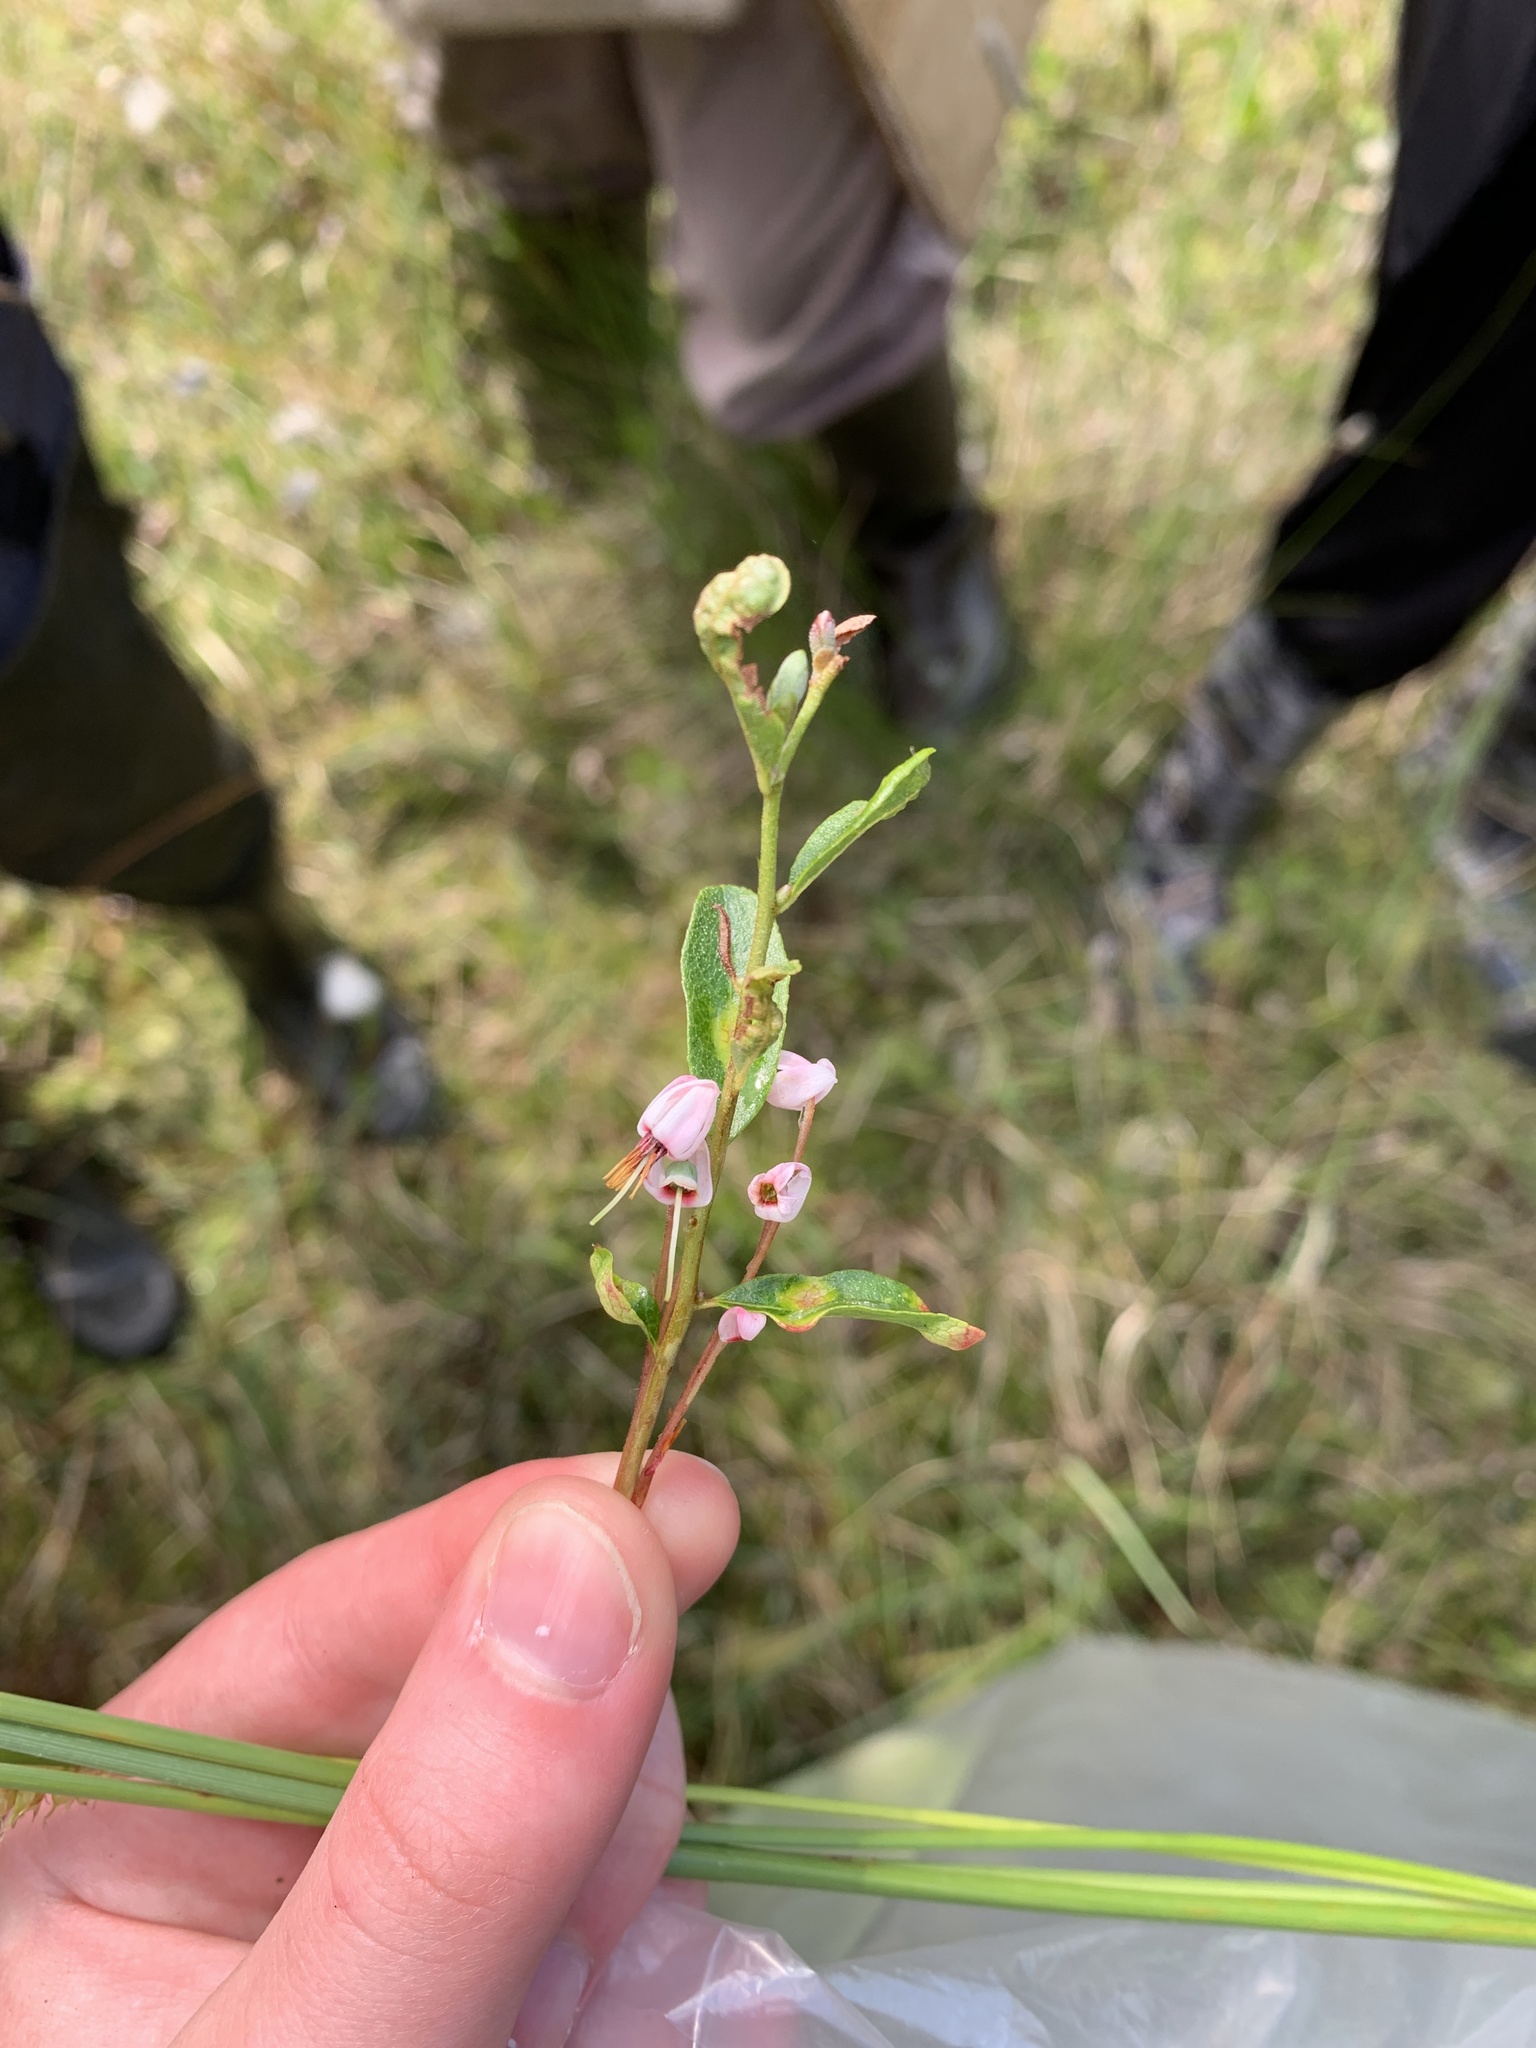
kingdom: Plantae
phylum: Tracheophyta
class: Magnoliopsida
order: Ericales
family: Ericaceae
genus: Vaccinium
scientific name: Vaccinium oxycoccos
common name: Cranberry
